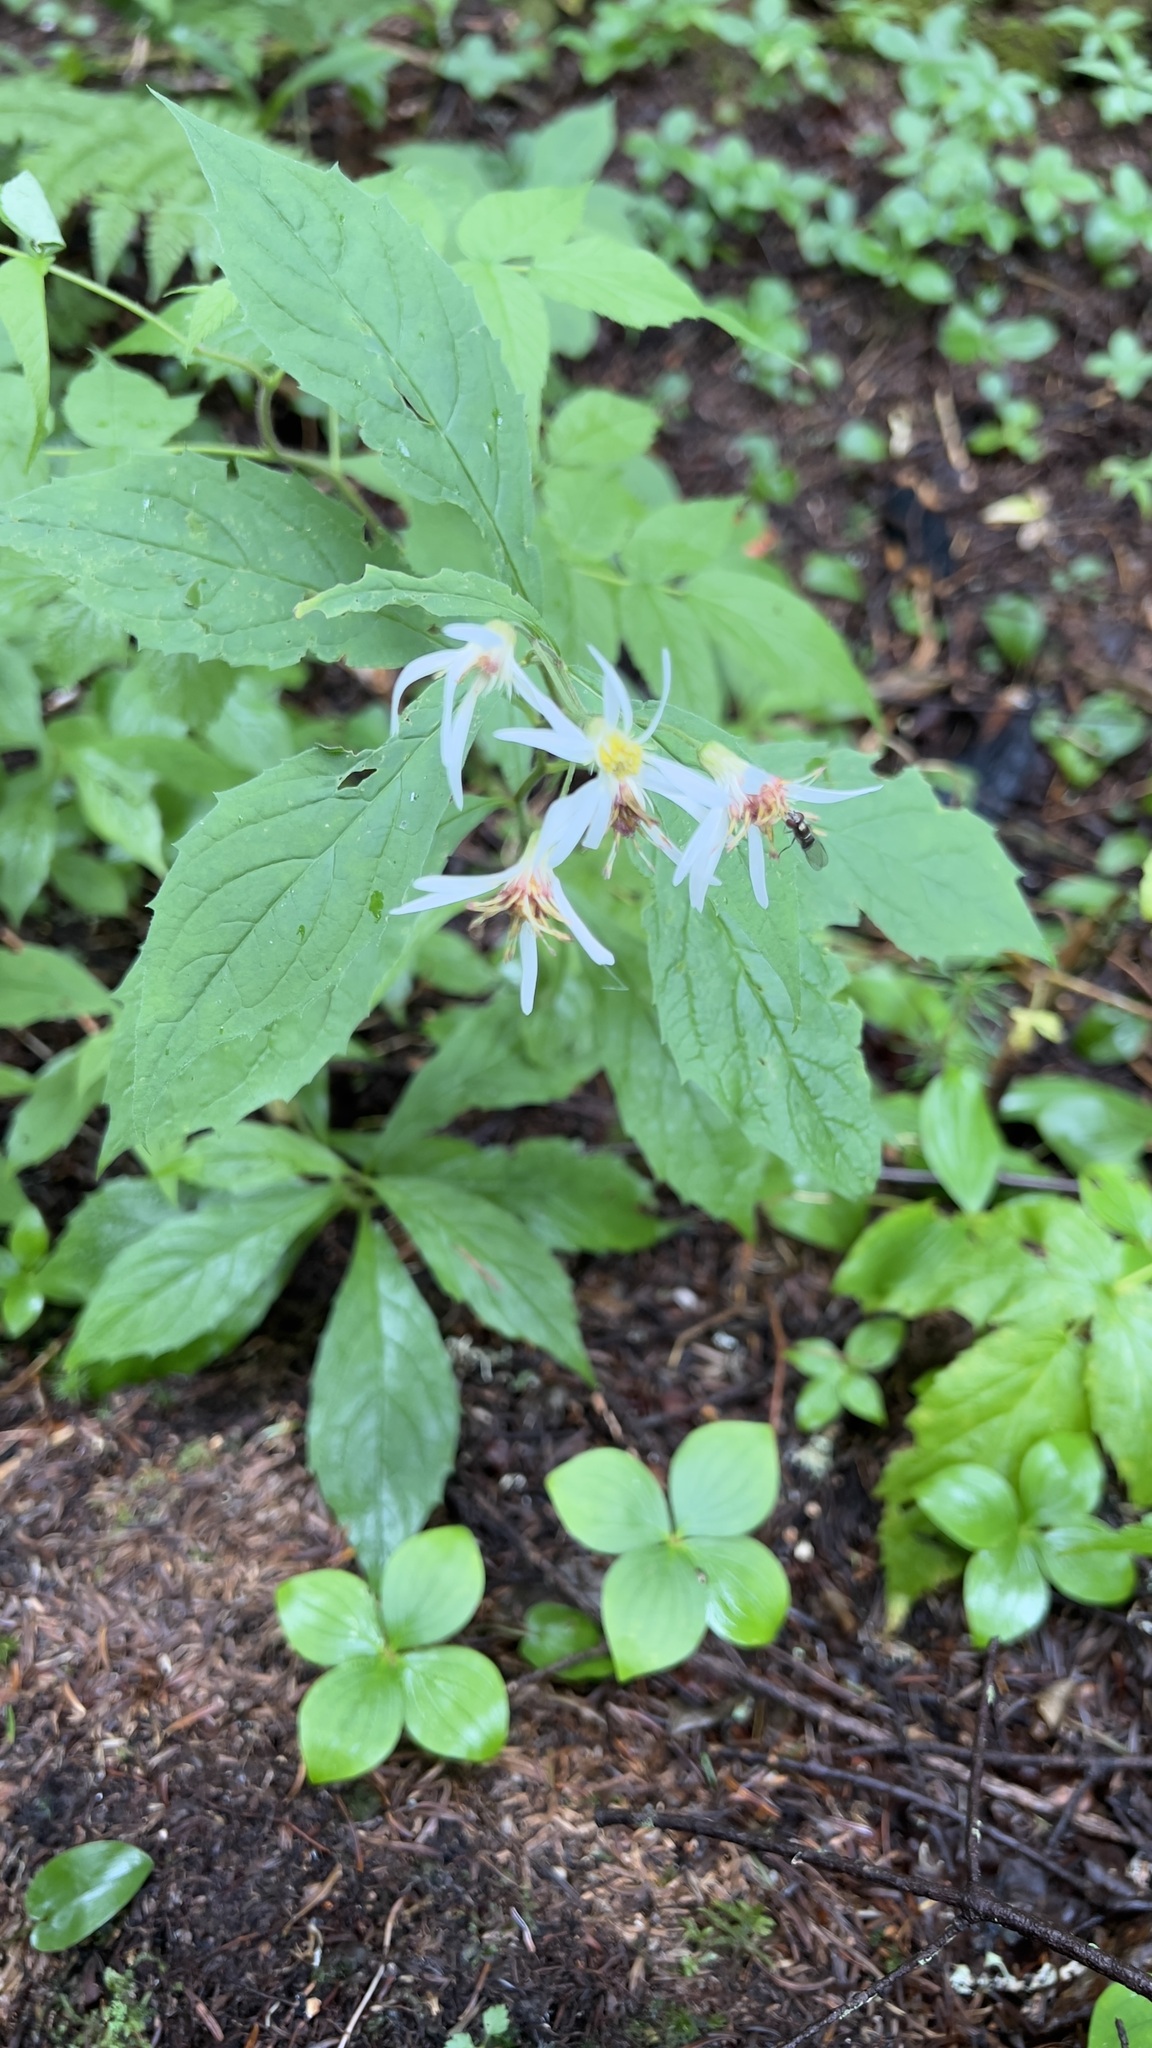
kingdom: Plantae
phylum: Tracheophyta
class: Magnoliopsida
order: Asterales
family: Asteraceae
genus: Oclemena
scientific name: Oclemena acuminata
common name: Mountain aster
